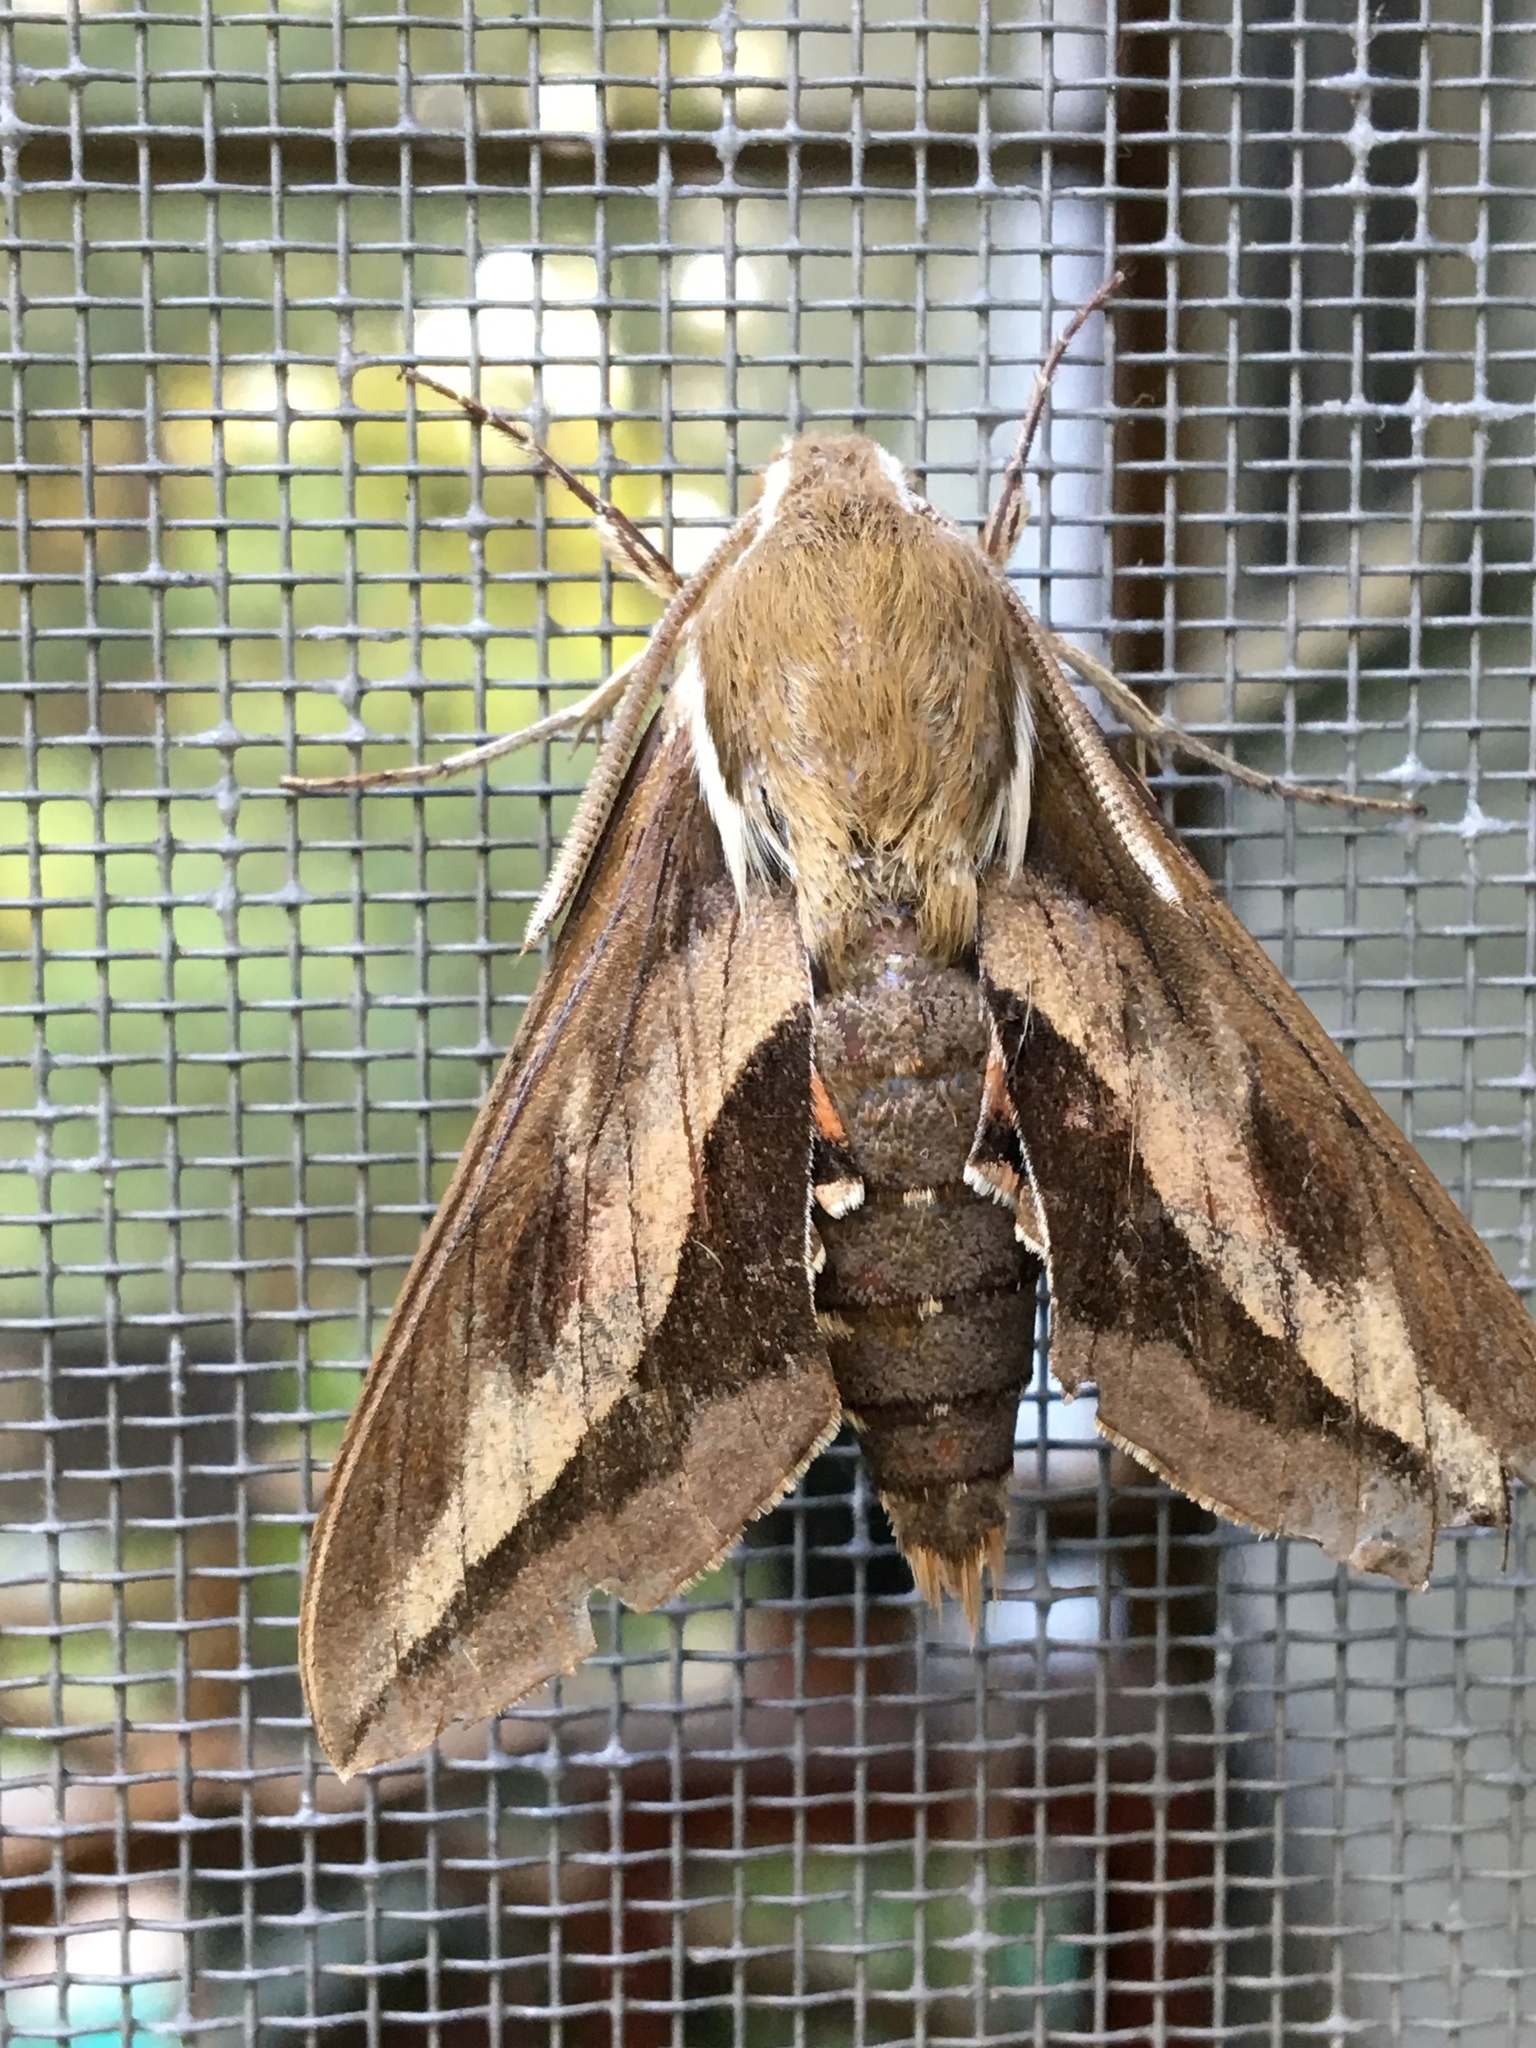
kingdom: Animalia
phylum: Arthropoda
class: Insecta
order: Lepidoptera
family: Sphingidae
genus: Hyles
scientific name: Hyles gallii
